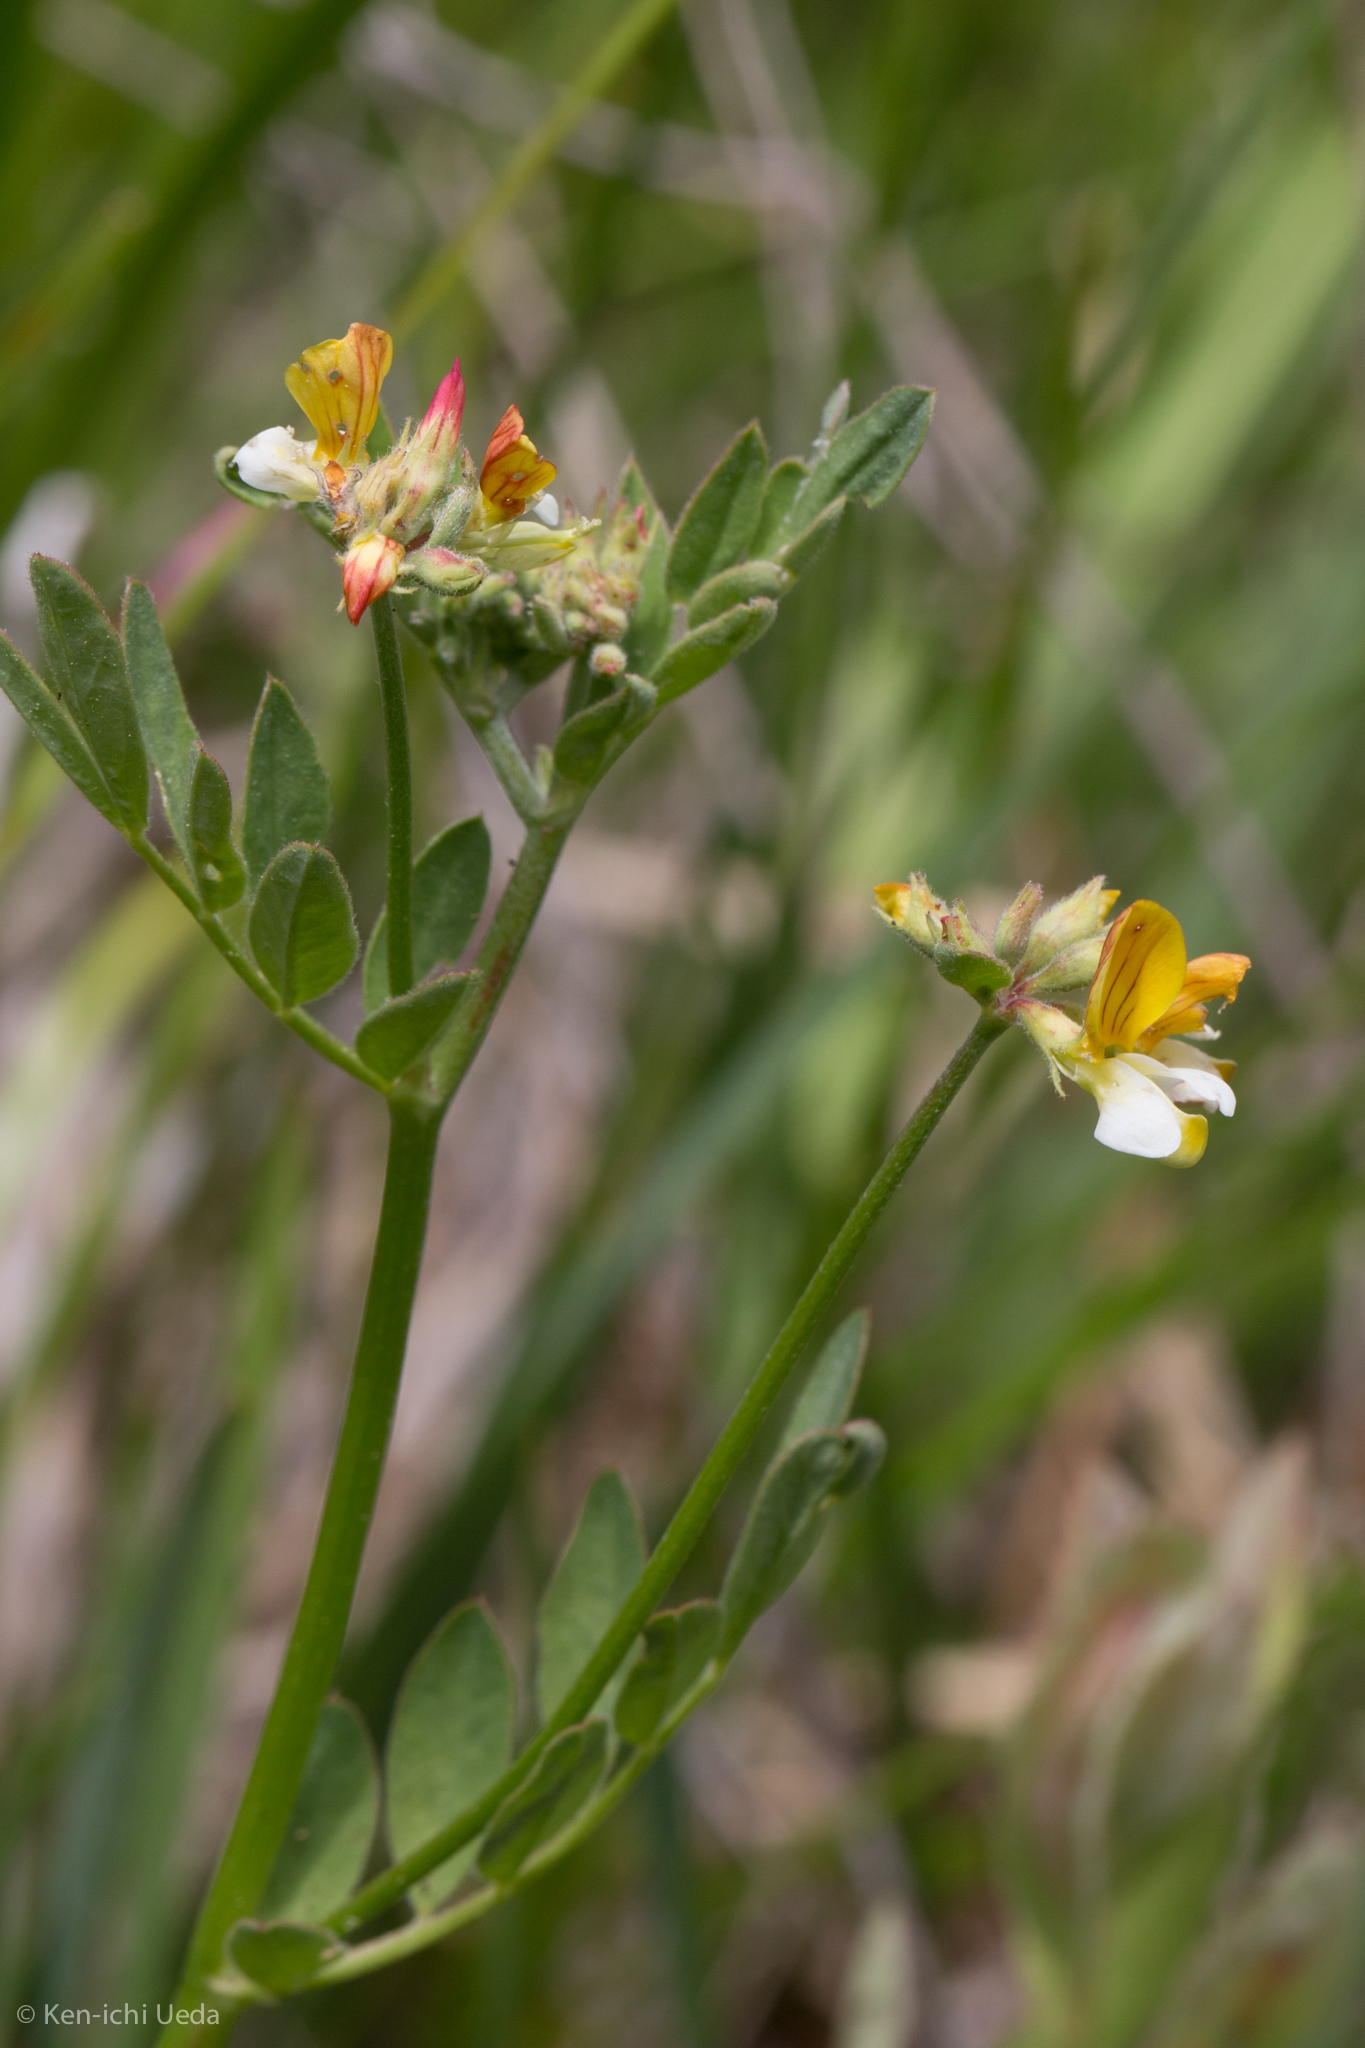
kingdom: Plantae
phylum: Tracheophyta
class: Magnoliopsida
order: Fabales
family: Fabaceae
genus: Hosackia
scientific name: Hosackia oblongifolia
